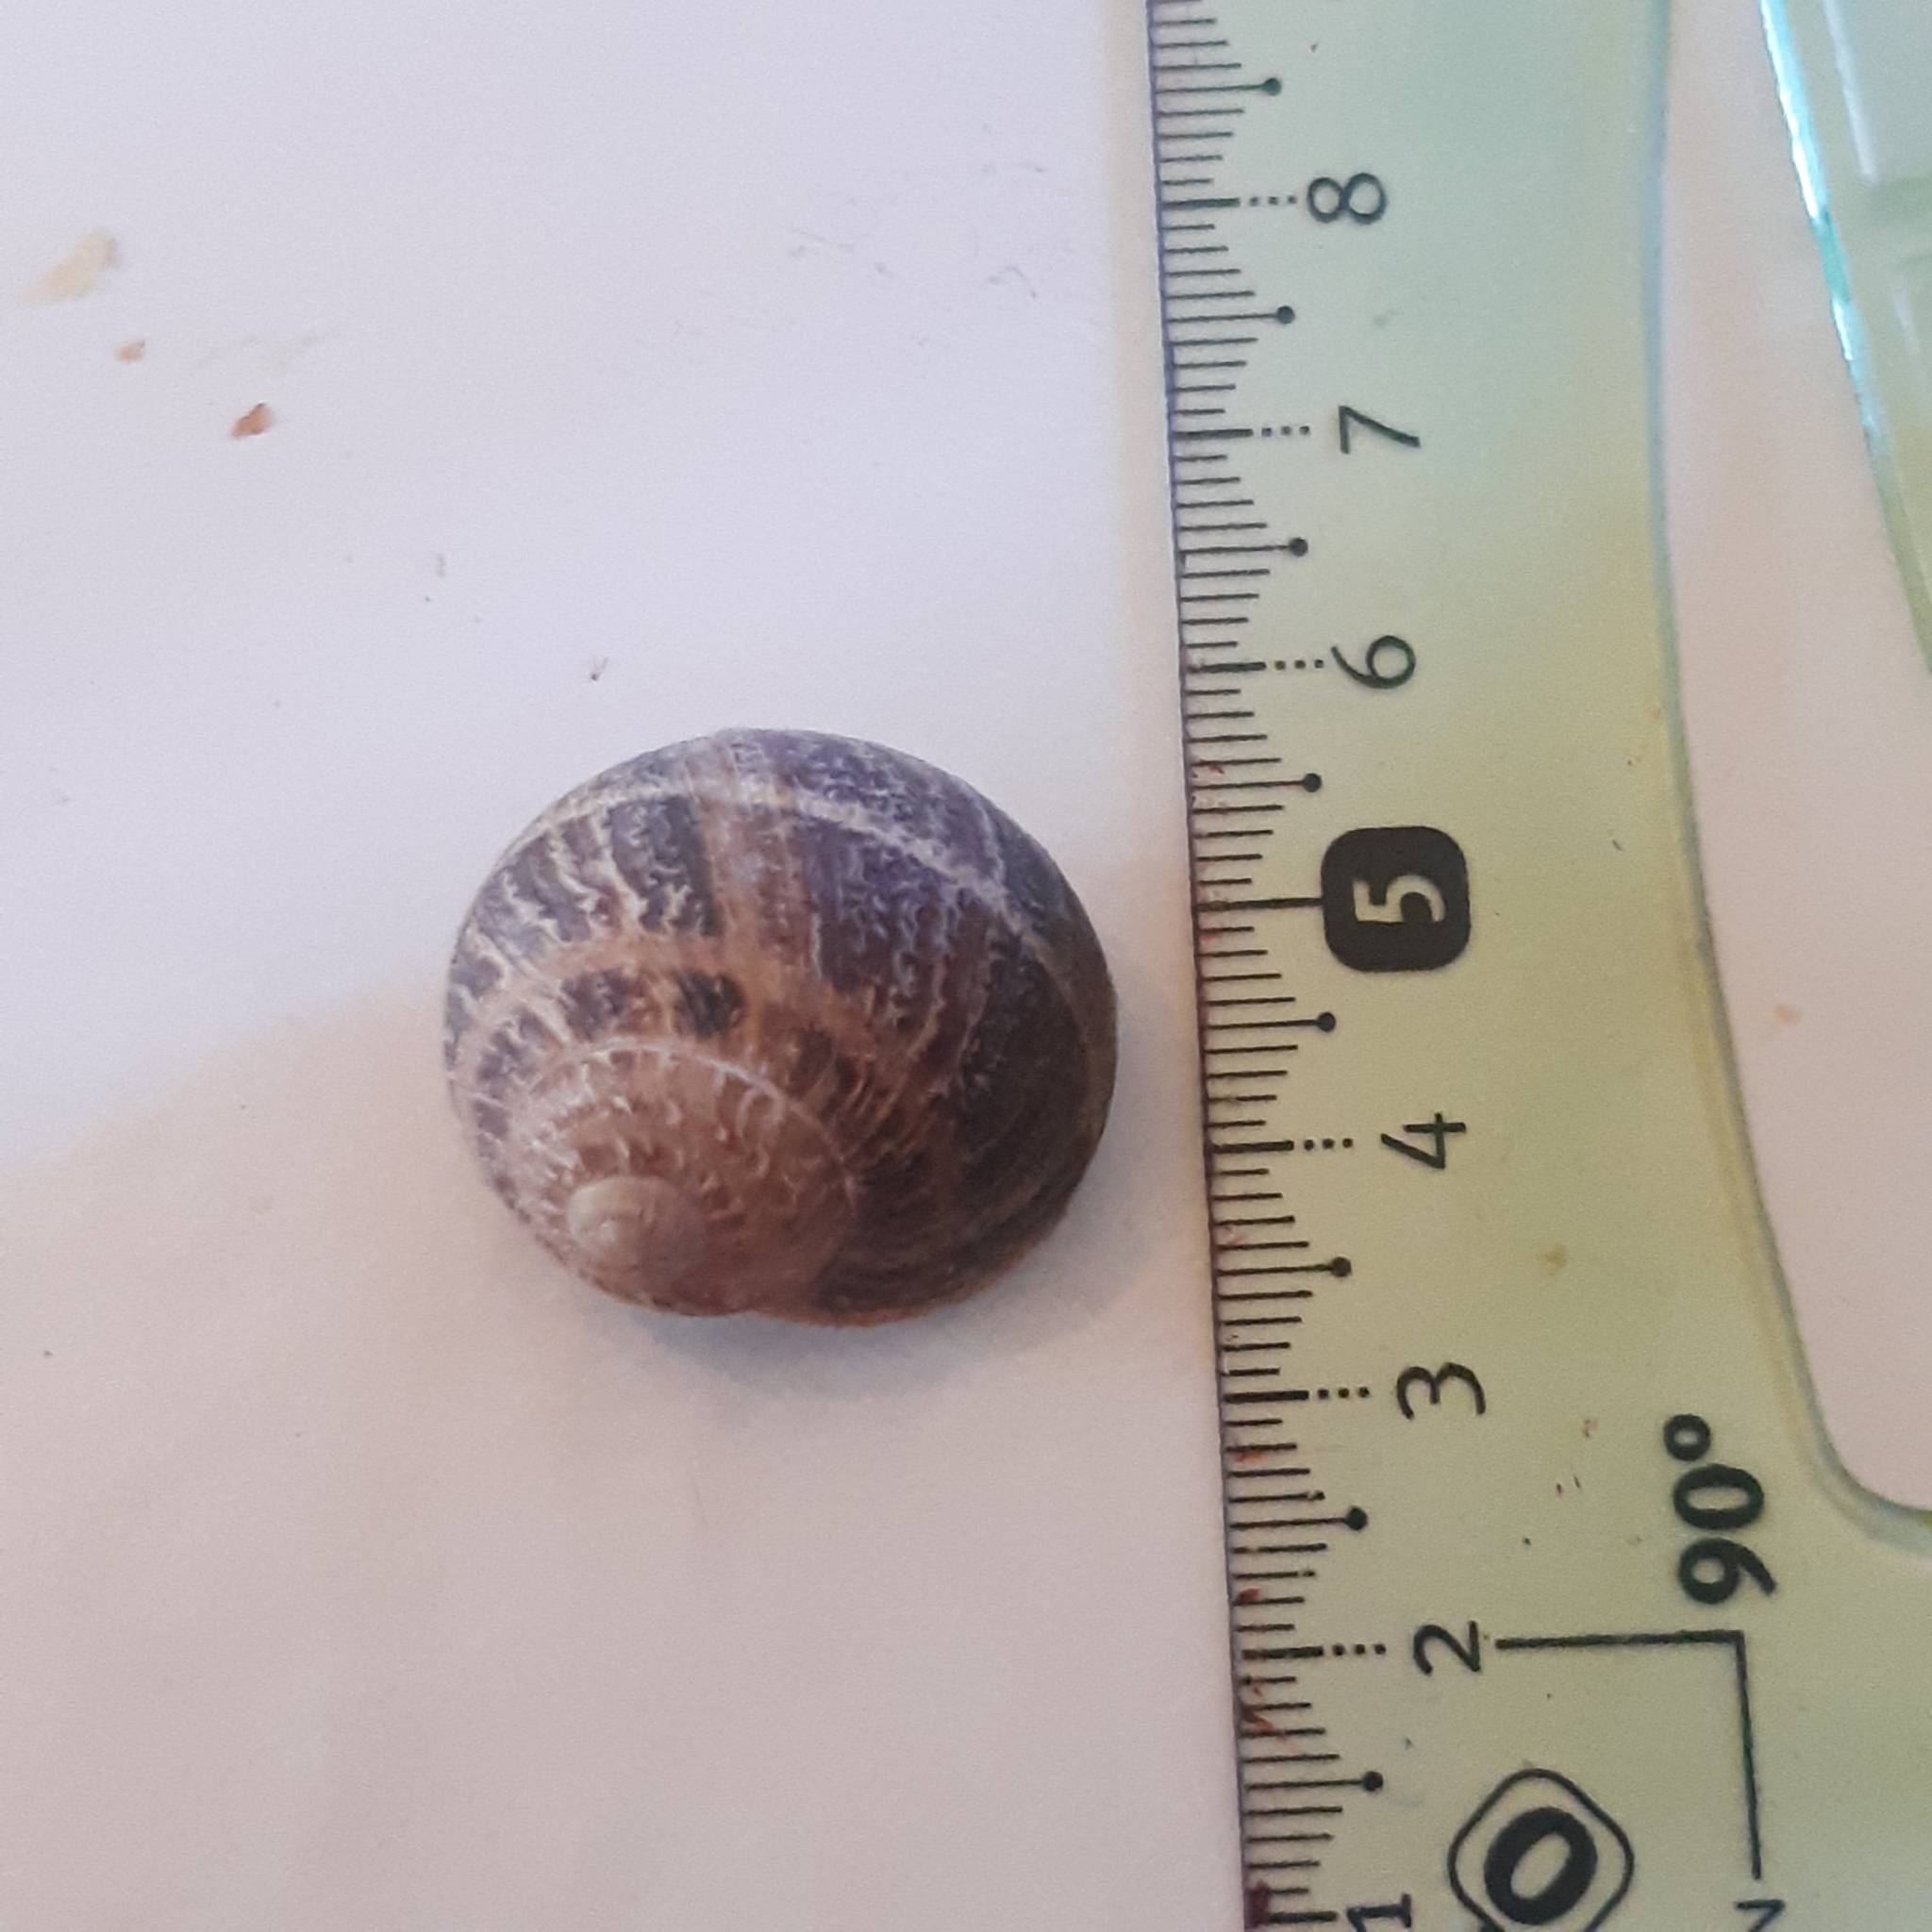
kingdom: Animalia
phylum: Mollusca
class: Gastropoda
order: Stylommatophora
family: Helicidae
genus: Cornu
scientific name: Cornu aspersum
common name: Brown garden snail
